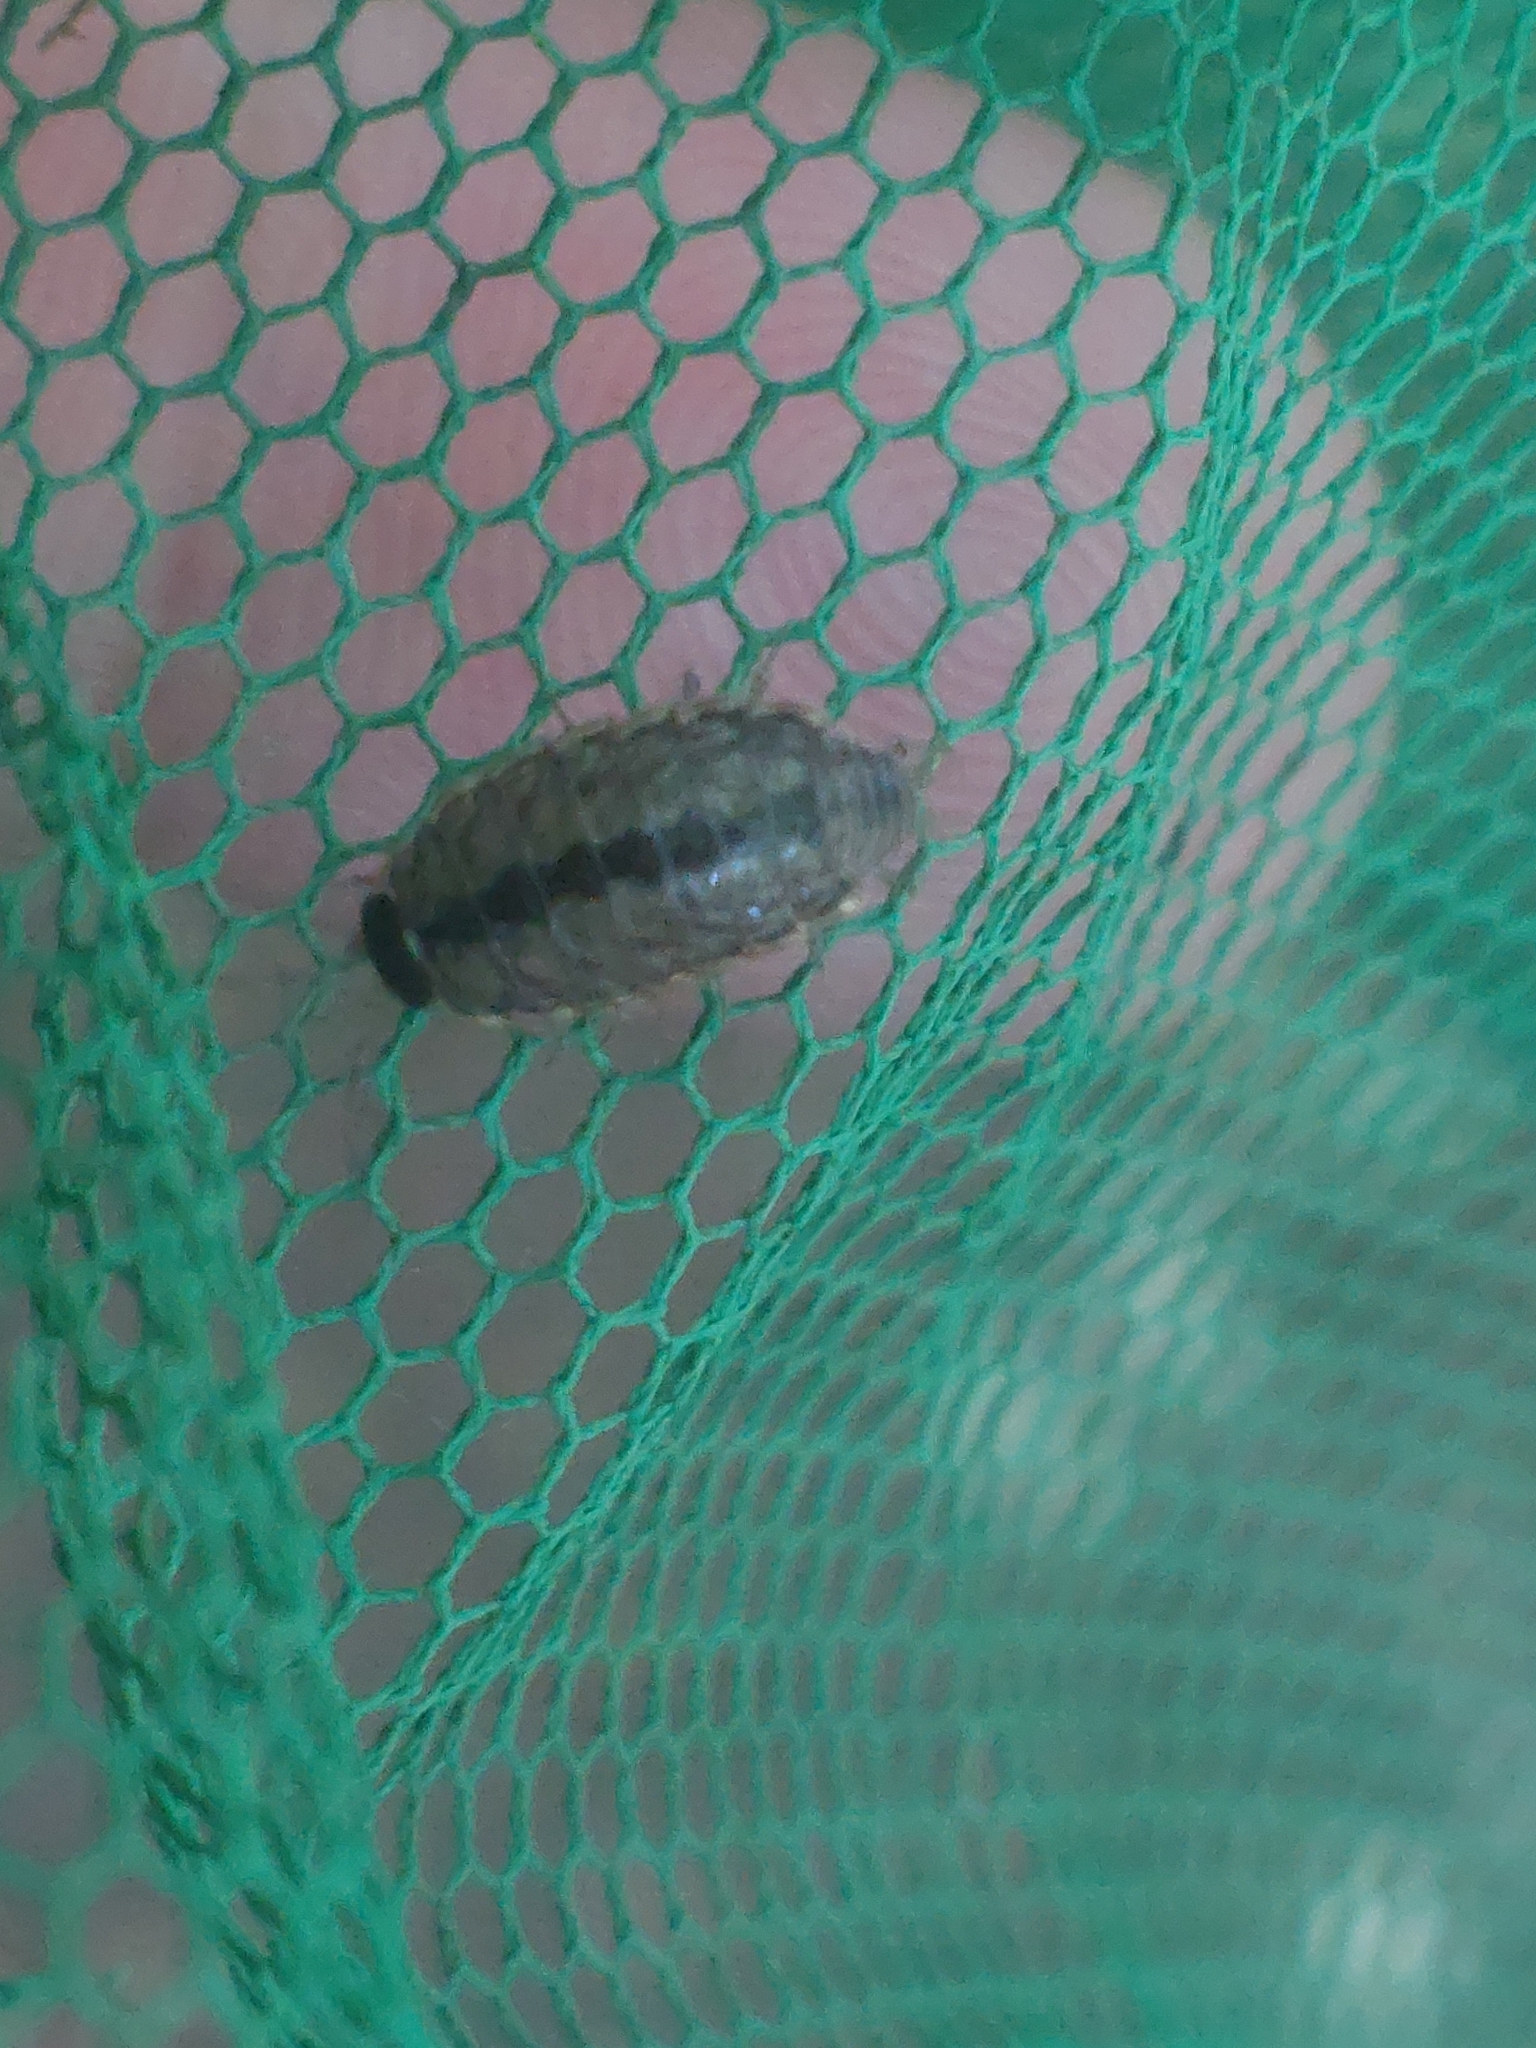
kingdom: Animalia
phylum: Arthropoda
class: Malacostraca
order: Isopoda
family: Philosciidae
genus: Philoscia
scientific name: Philoscia muscorum
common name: Common striped woodlouse
